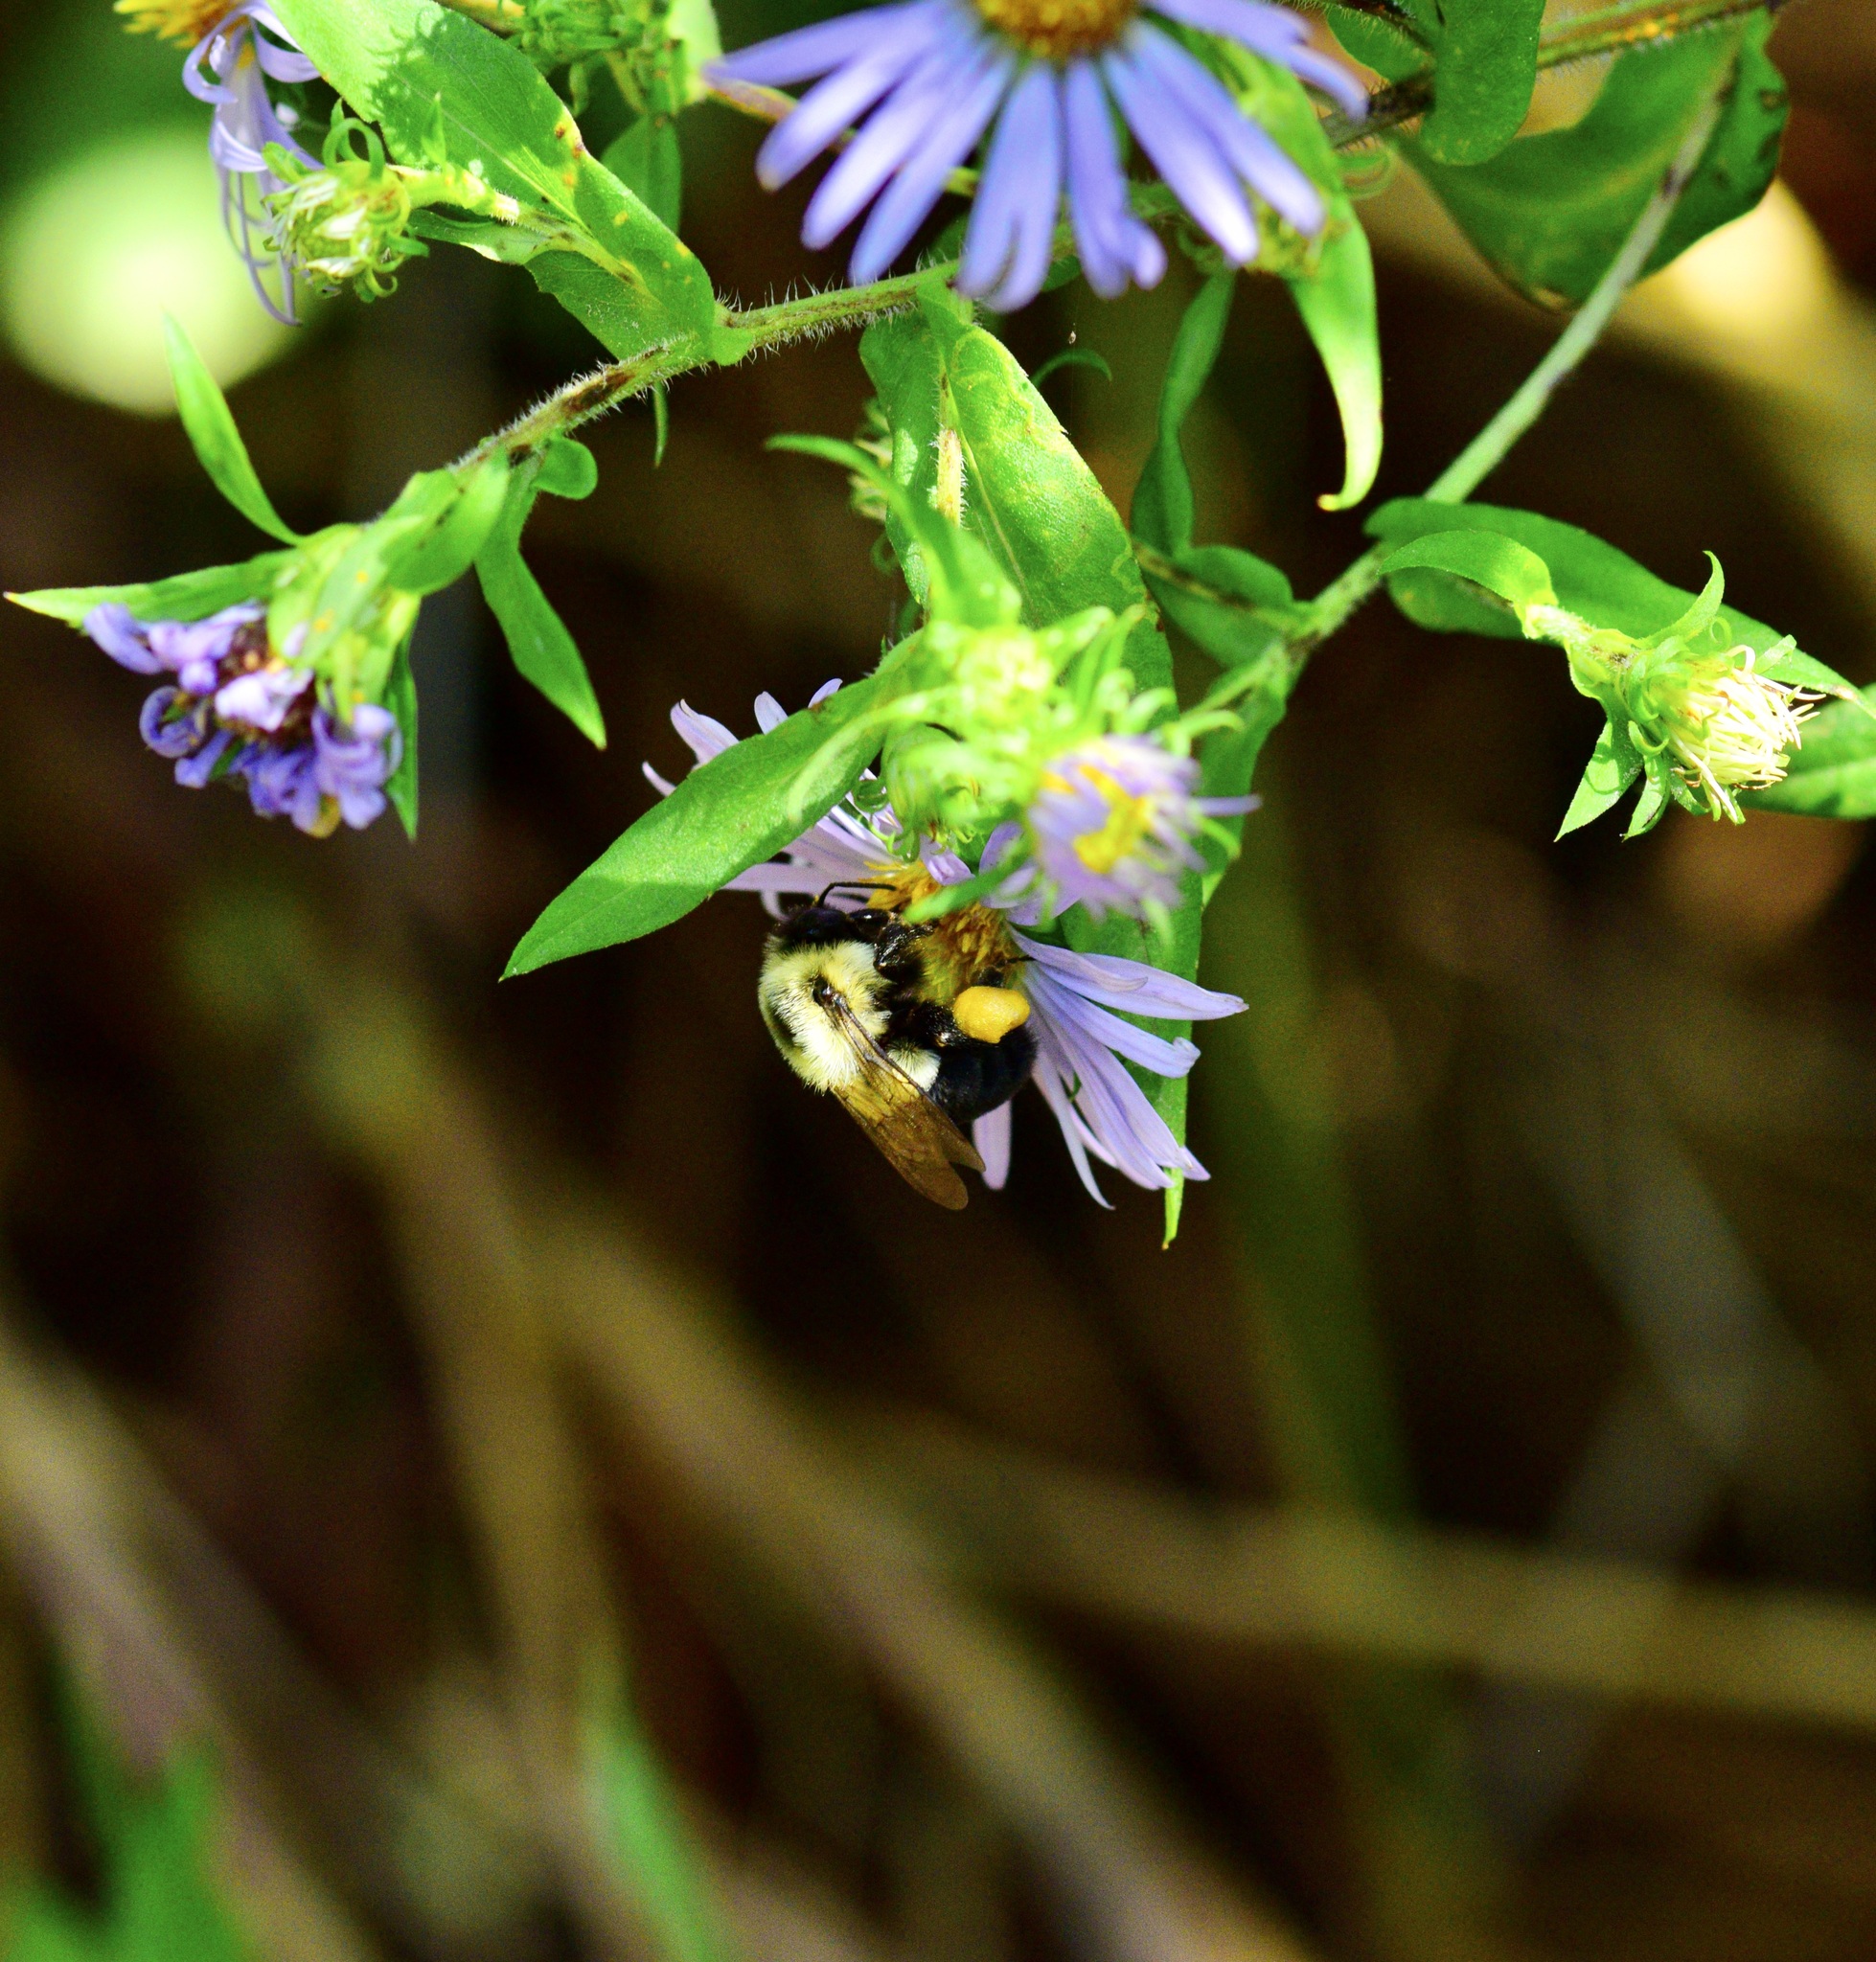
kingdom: Animalia
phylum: Arthropoda
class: Insecta
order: Hymenoptera
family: Apidae
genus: Bombus
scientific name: Bombus impatiens
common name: Common eastern bumble bee
